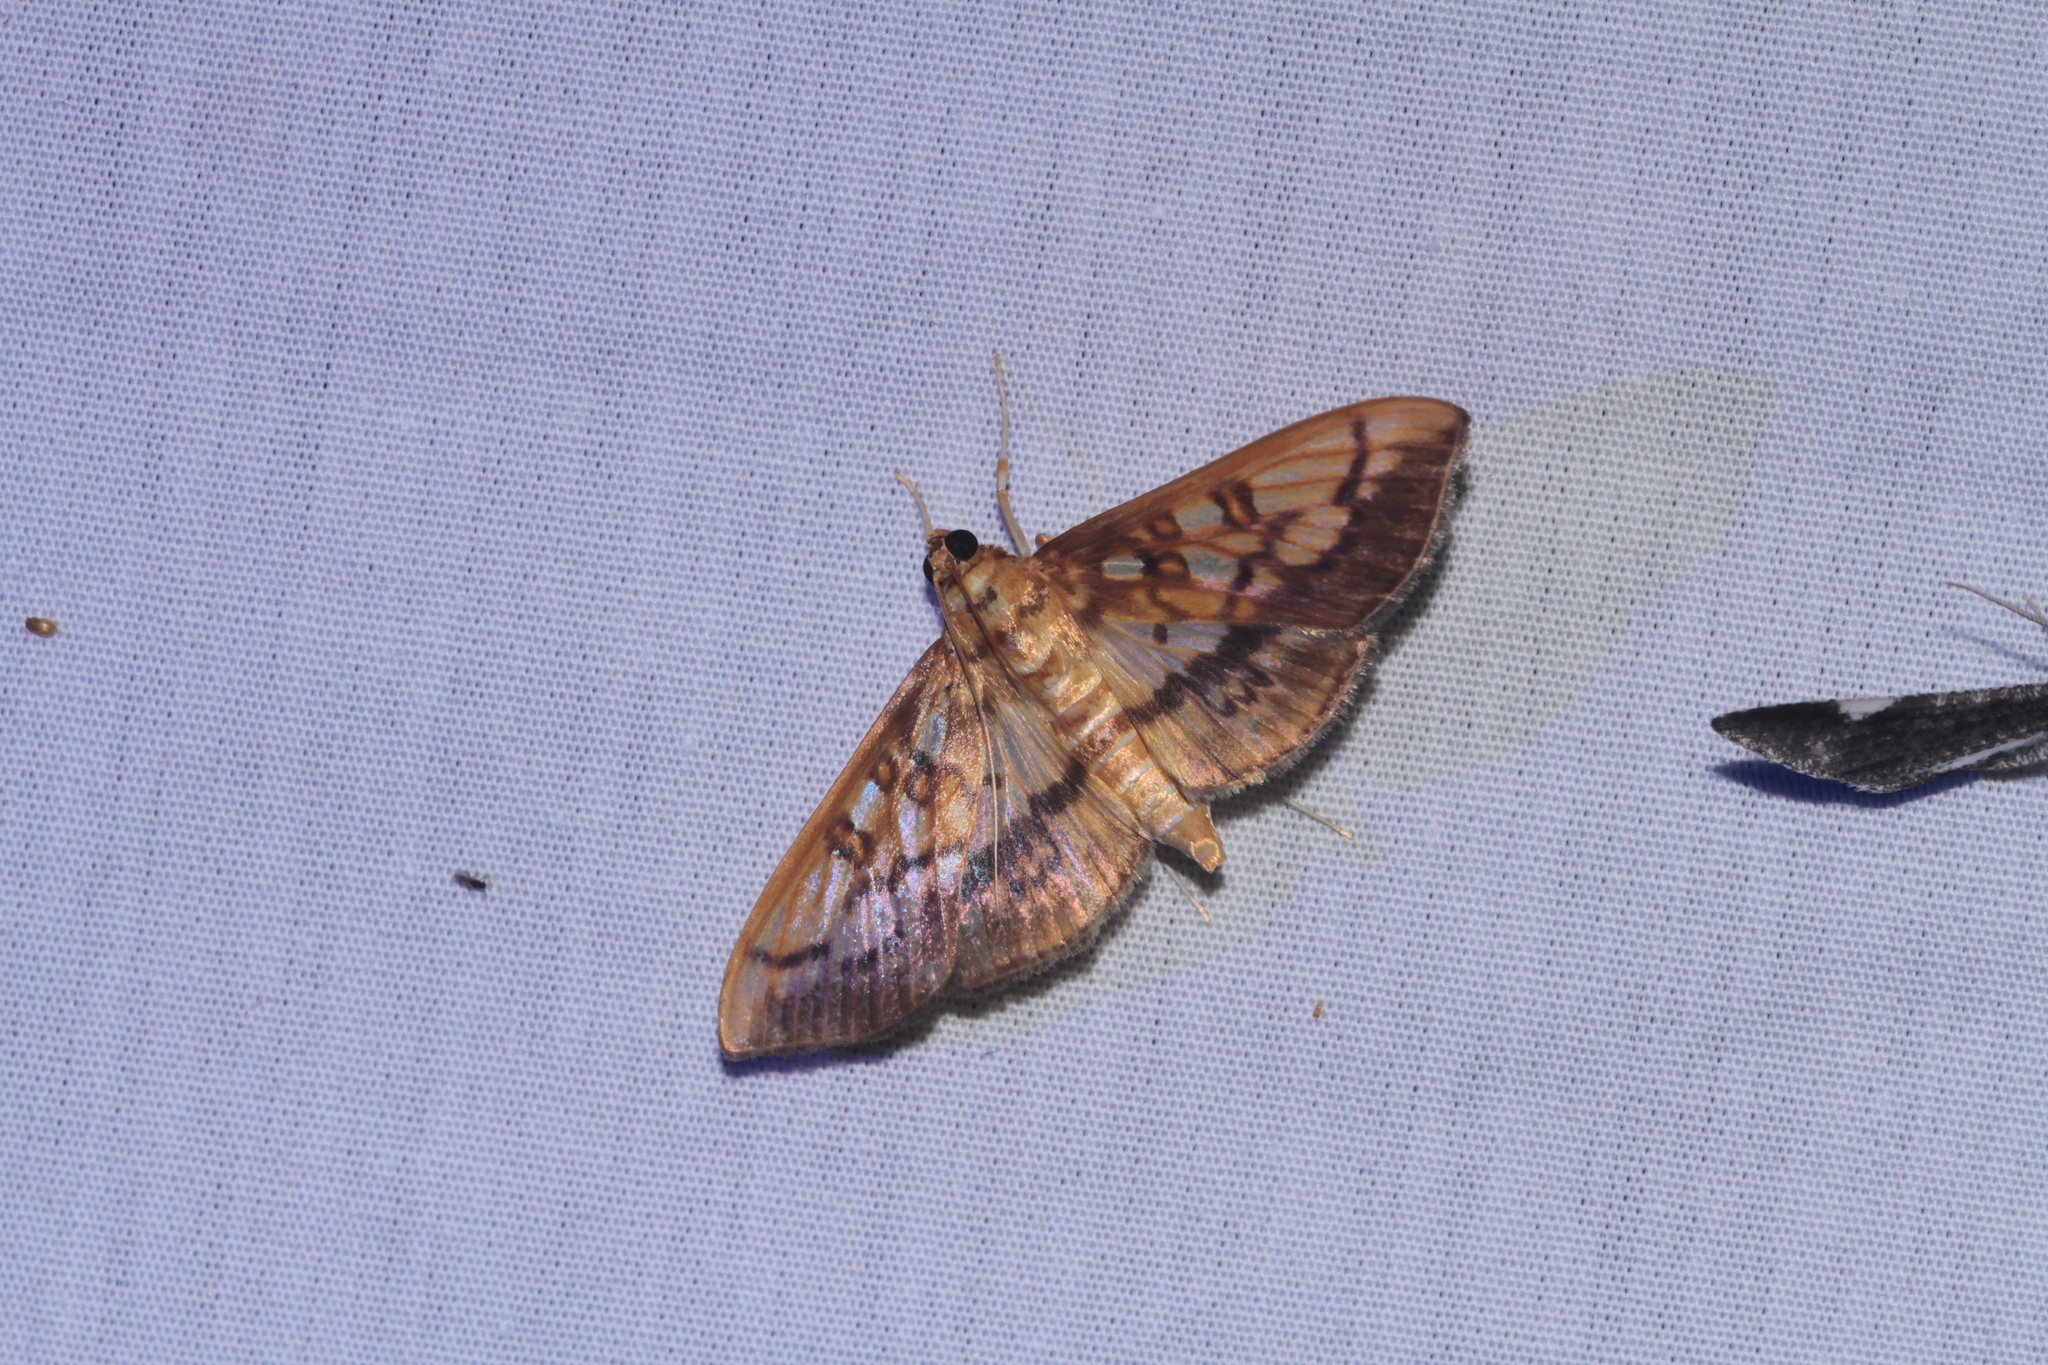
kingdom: Animalia
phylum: Arthropoda
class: Insecta
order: Lepidoptera
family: Crambidae
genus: Micromartinia
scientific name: Micromartinia mnemusalis
